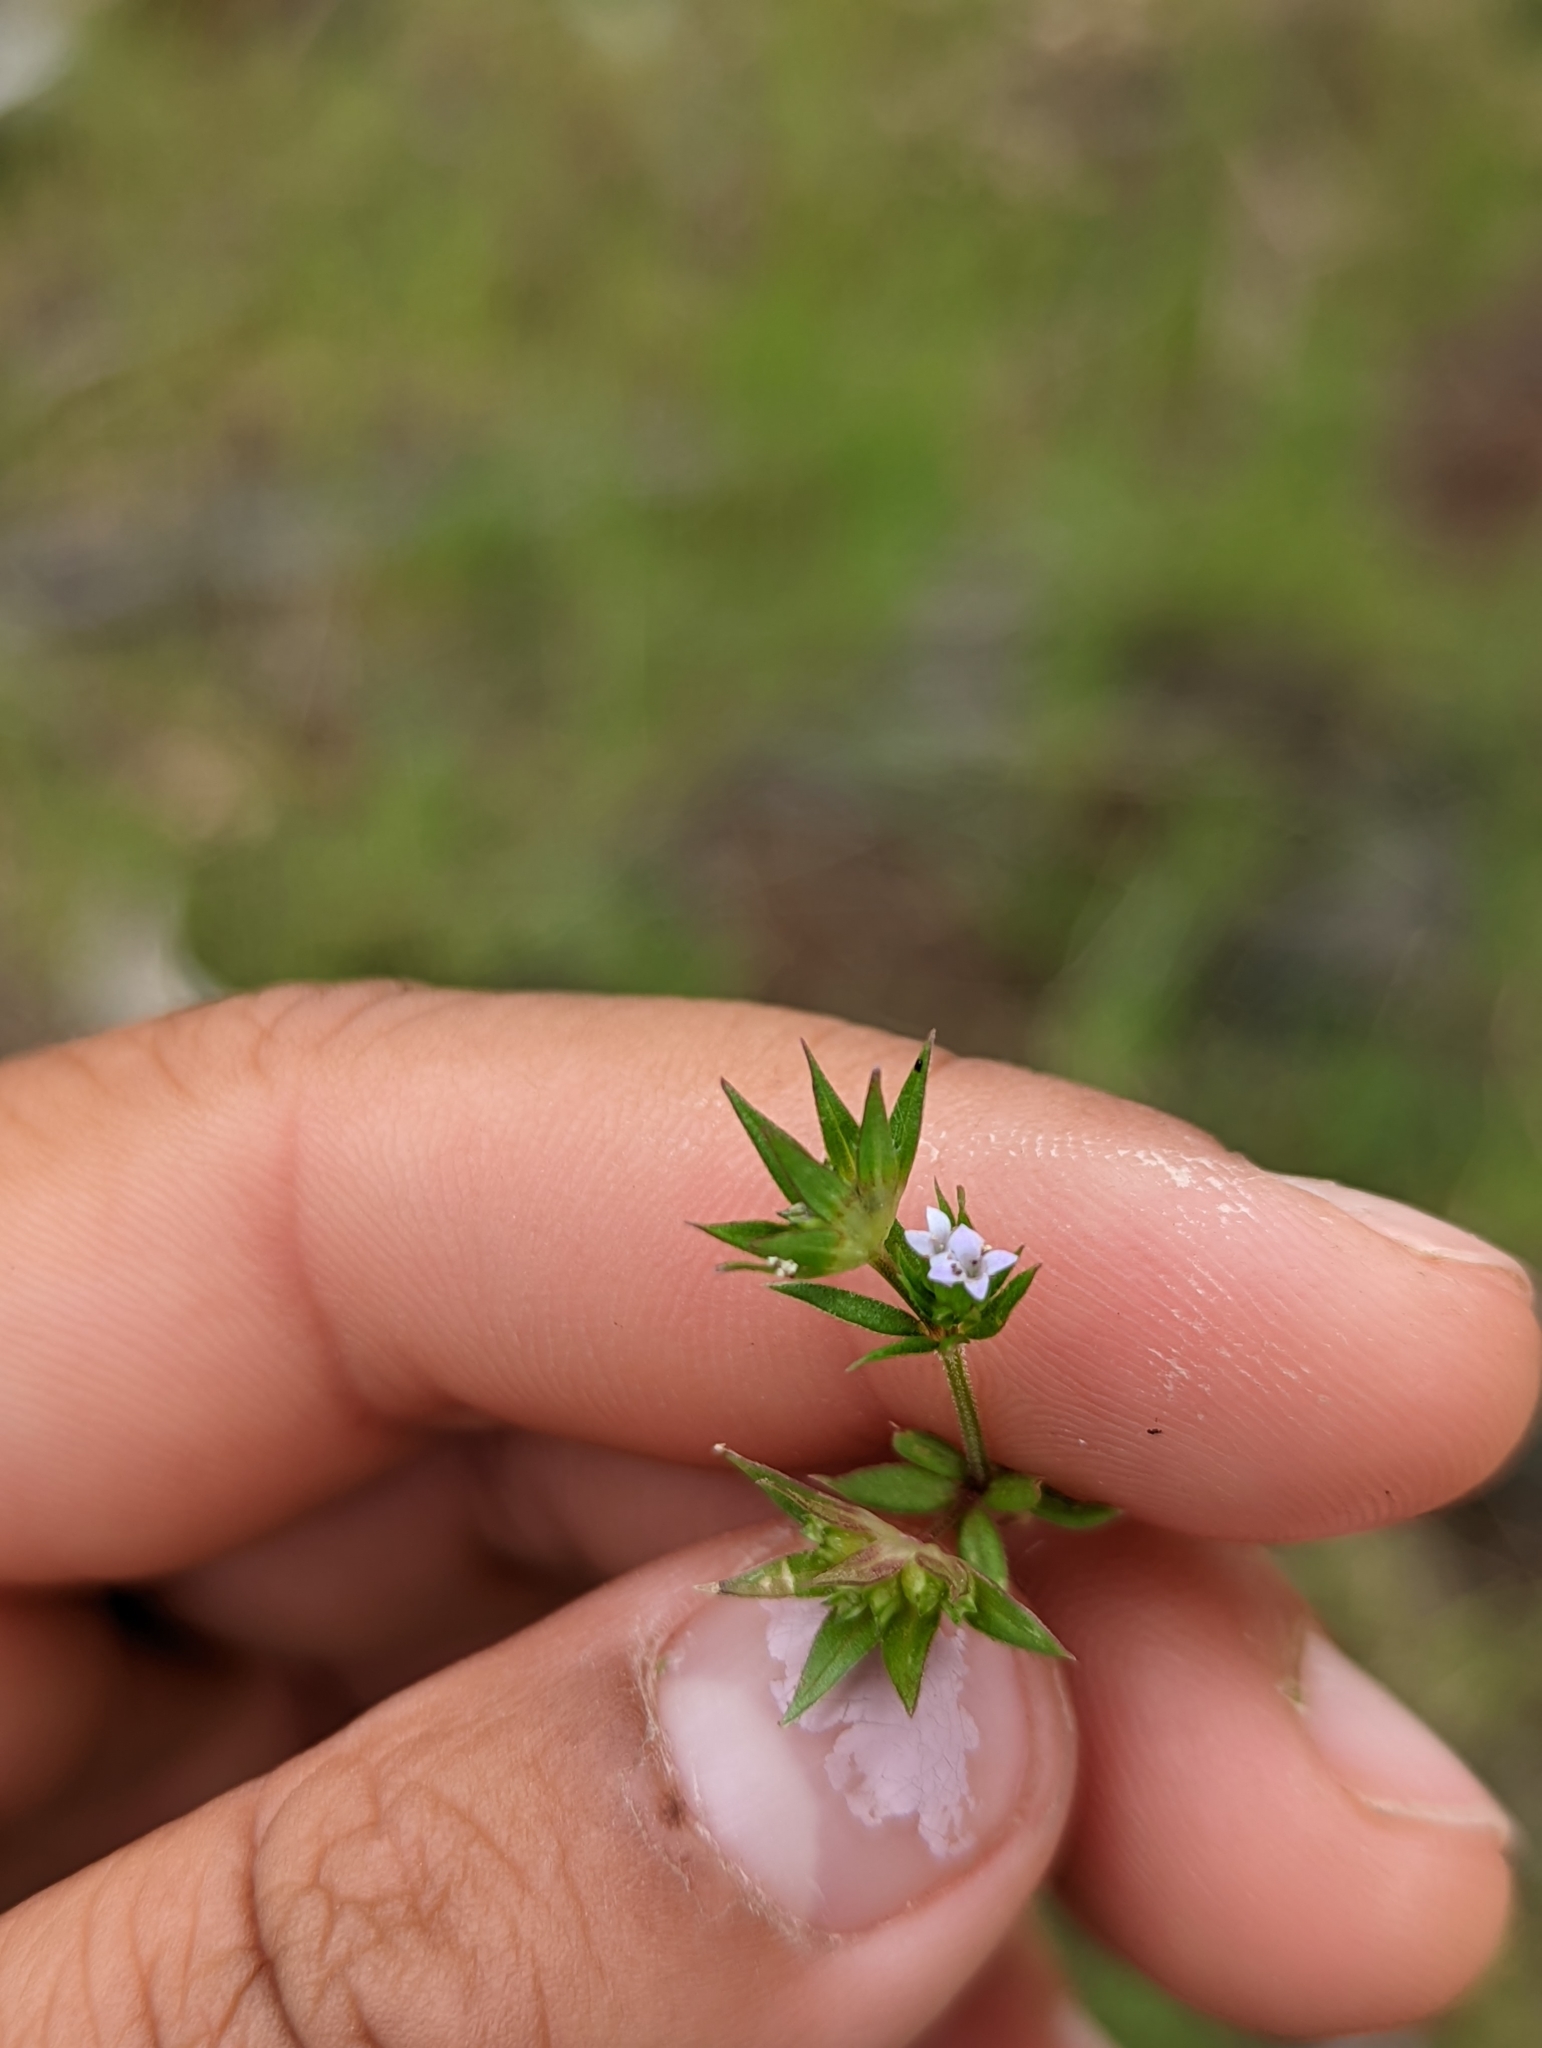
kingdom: Plantae
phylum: Tracheophyta
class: Magnoliopsida
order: Gentianales
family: Rubiaceae
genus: Sherardia
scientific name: Sherardia arvensis
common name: Field madder
